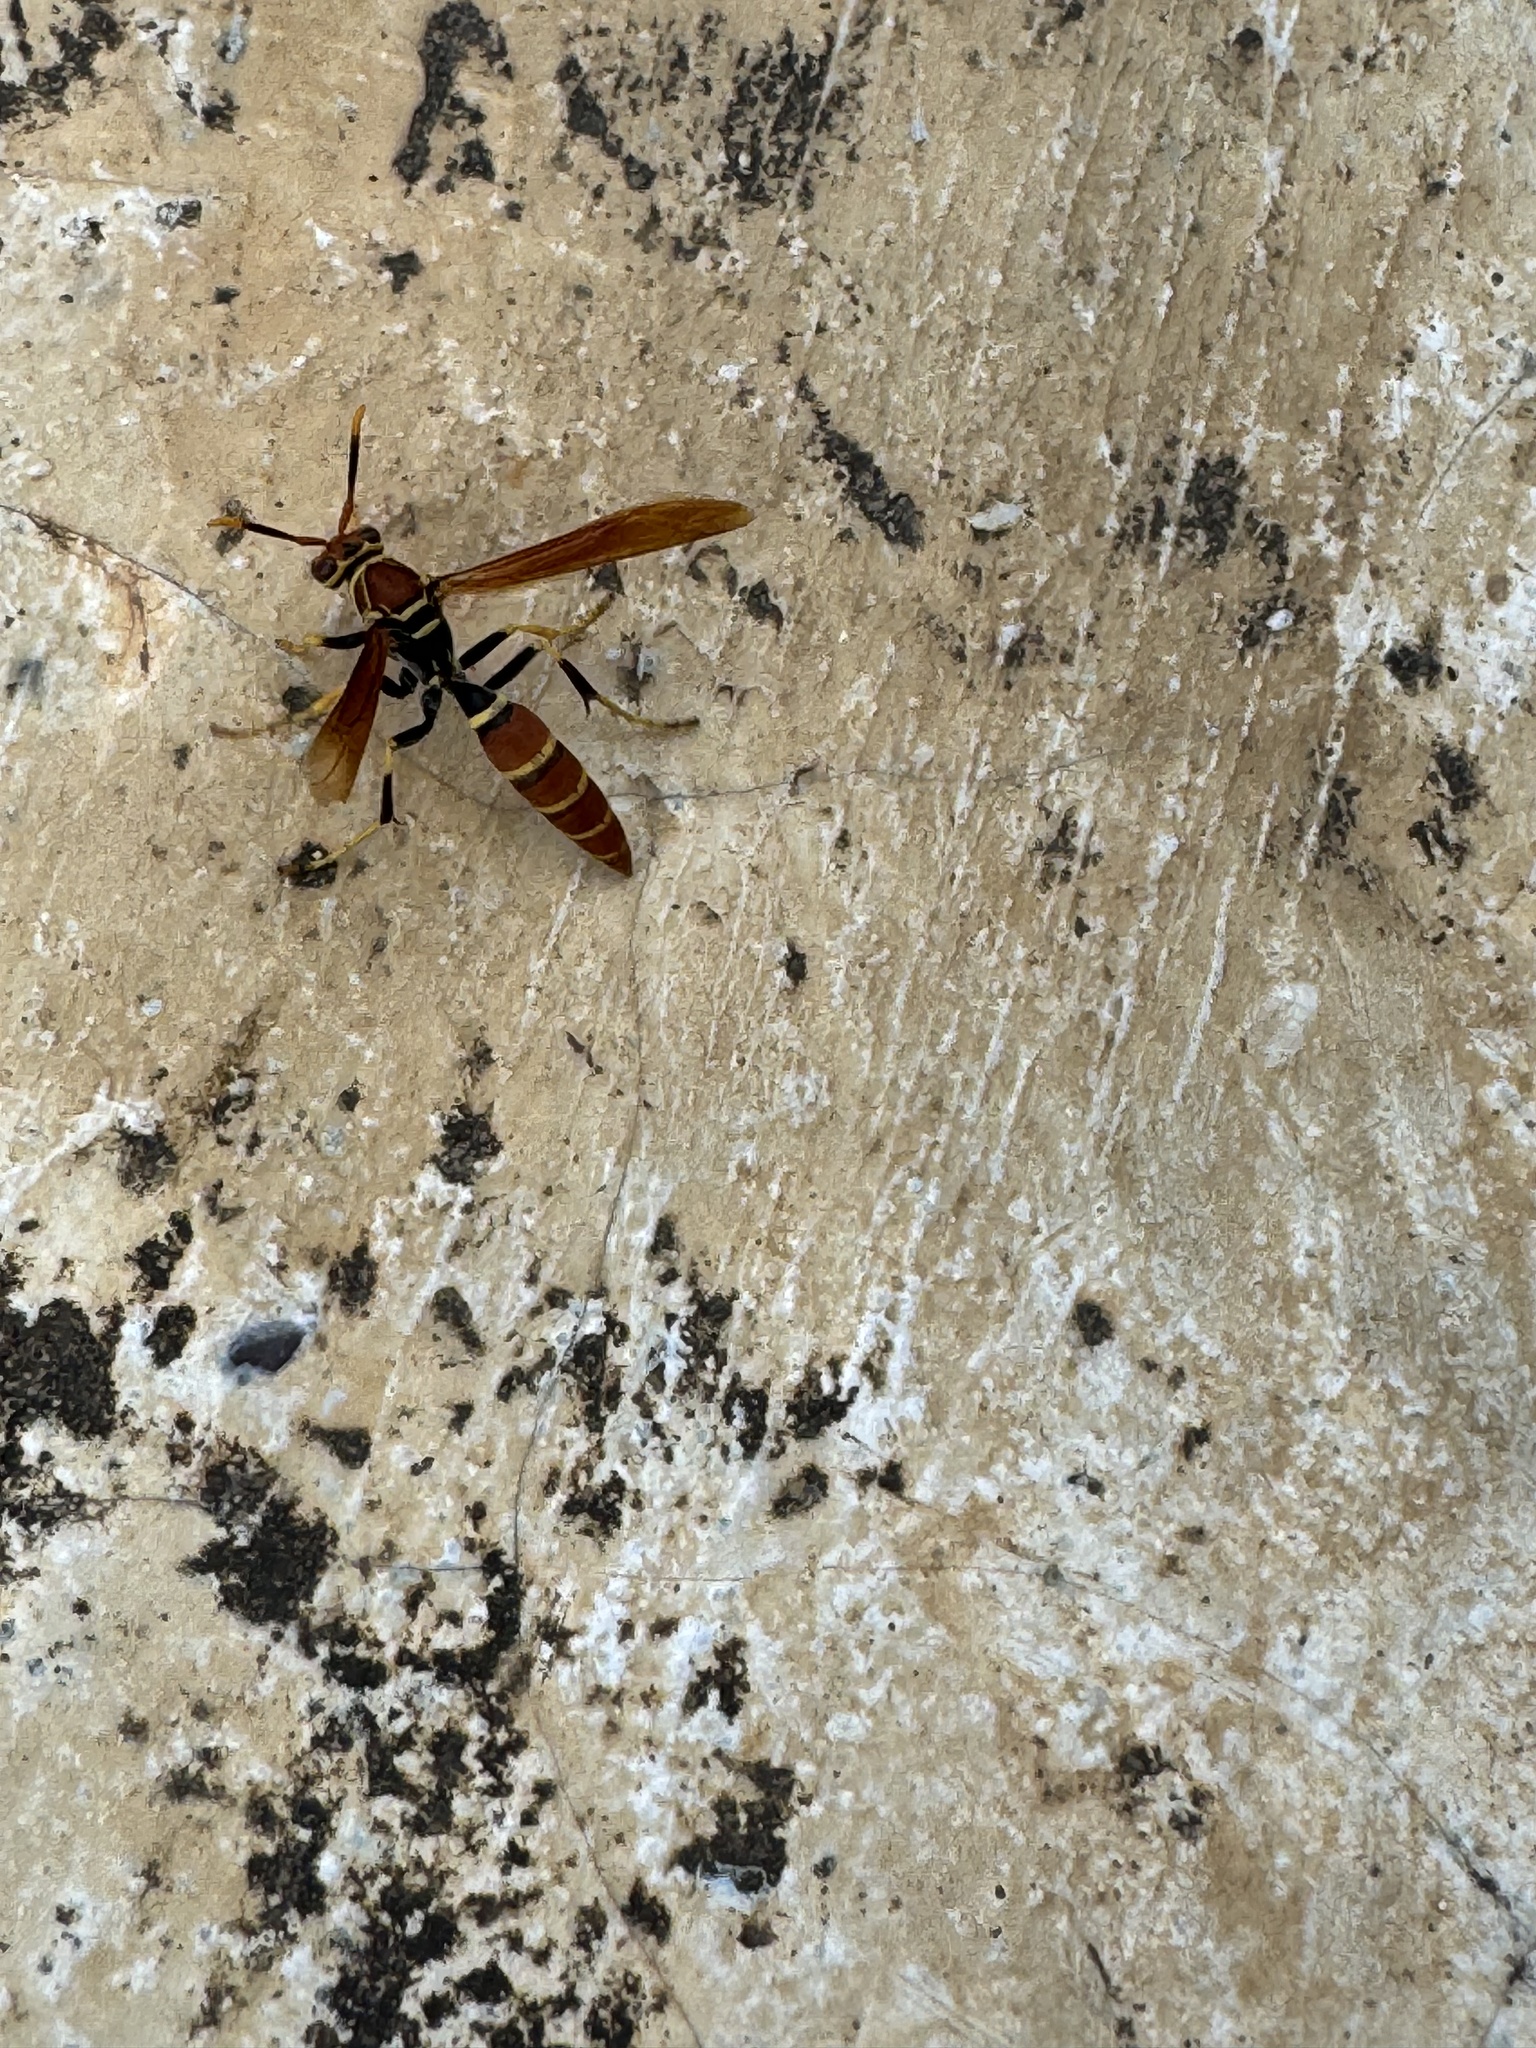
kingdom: Animalia
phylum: Arthropoda
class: Insecta
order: Hymenoptera
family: Eumenidae
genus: Polistes
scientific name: Polistes crinitus
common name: Jack spaniard
